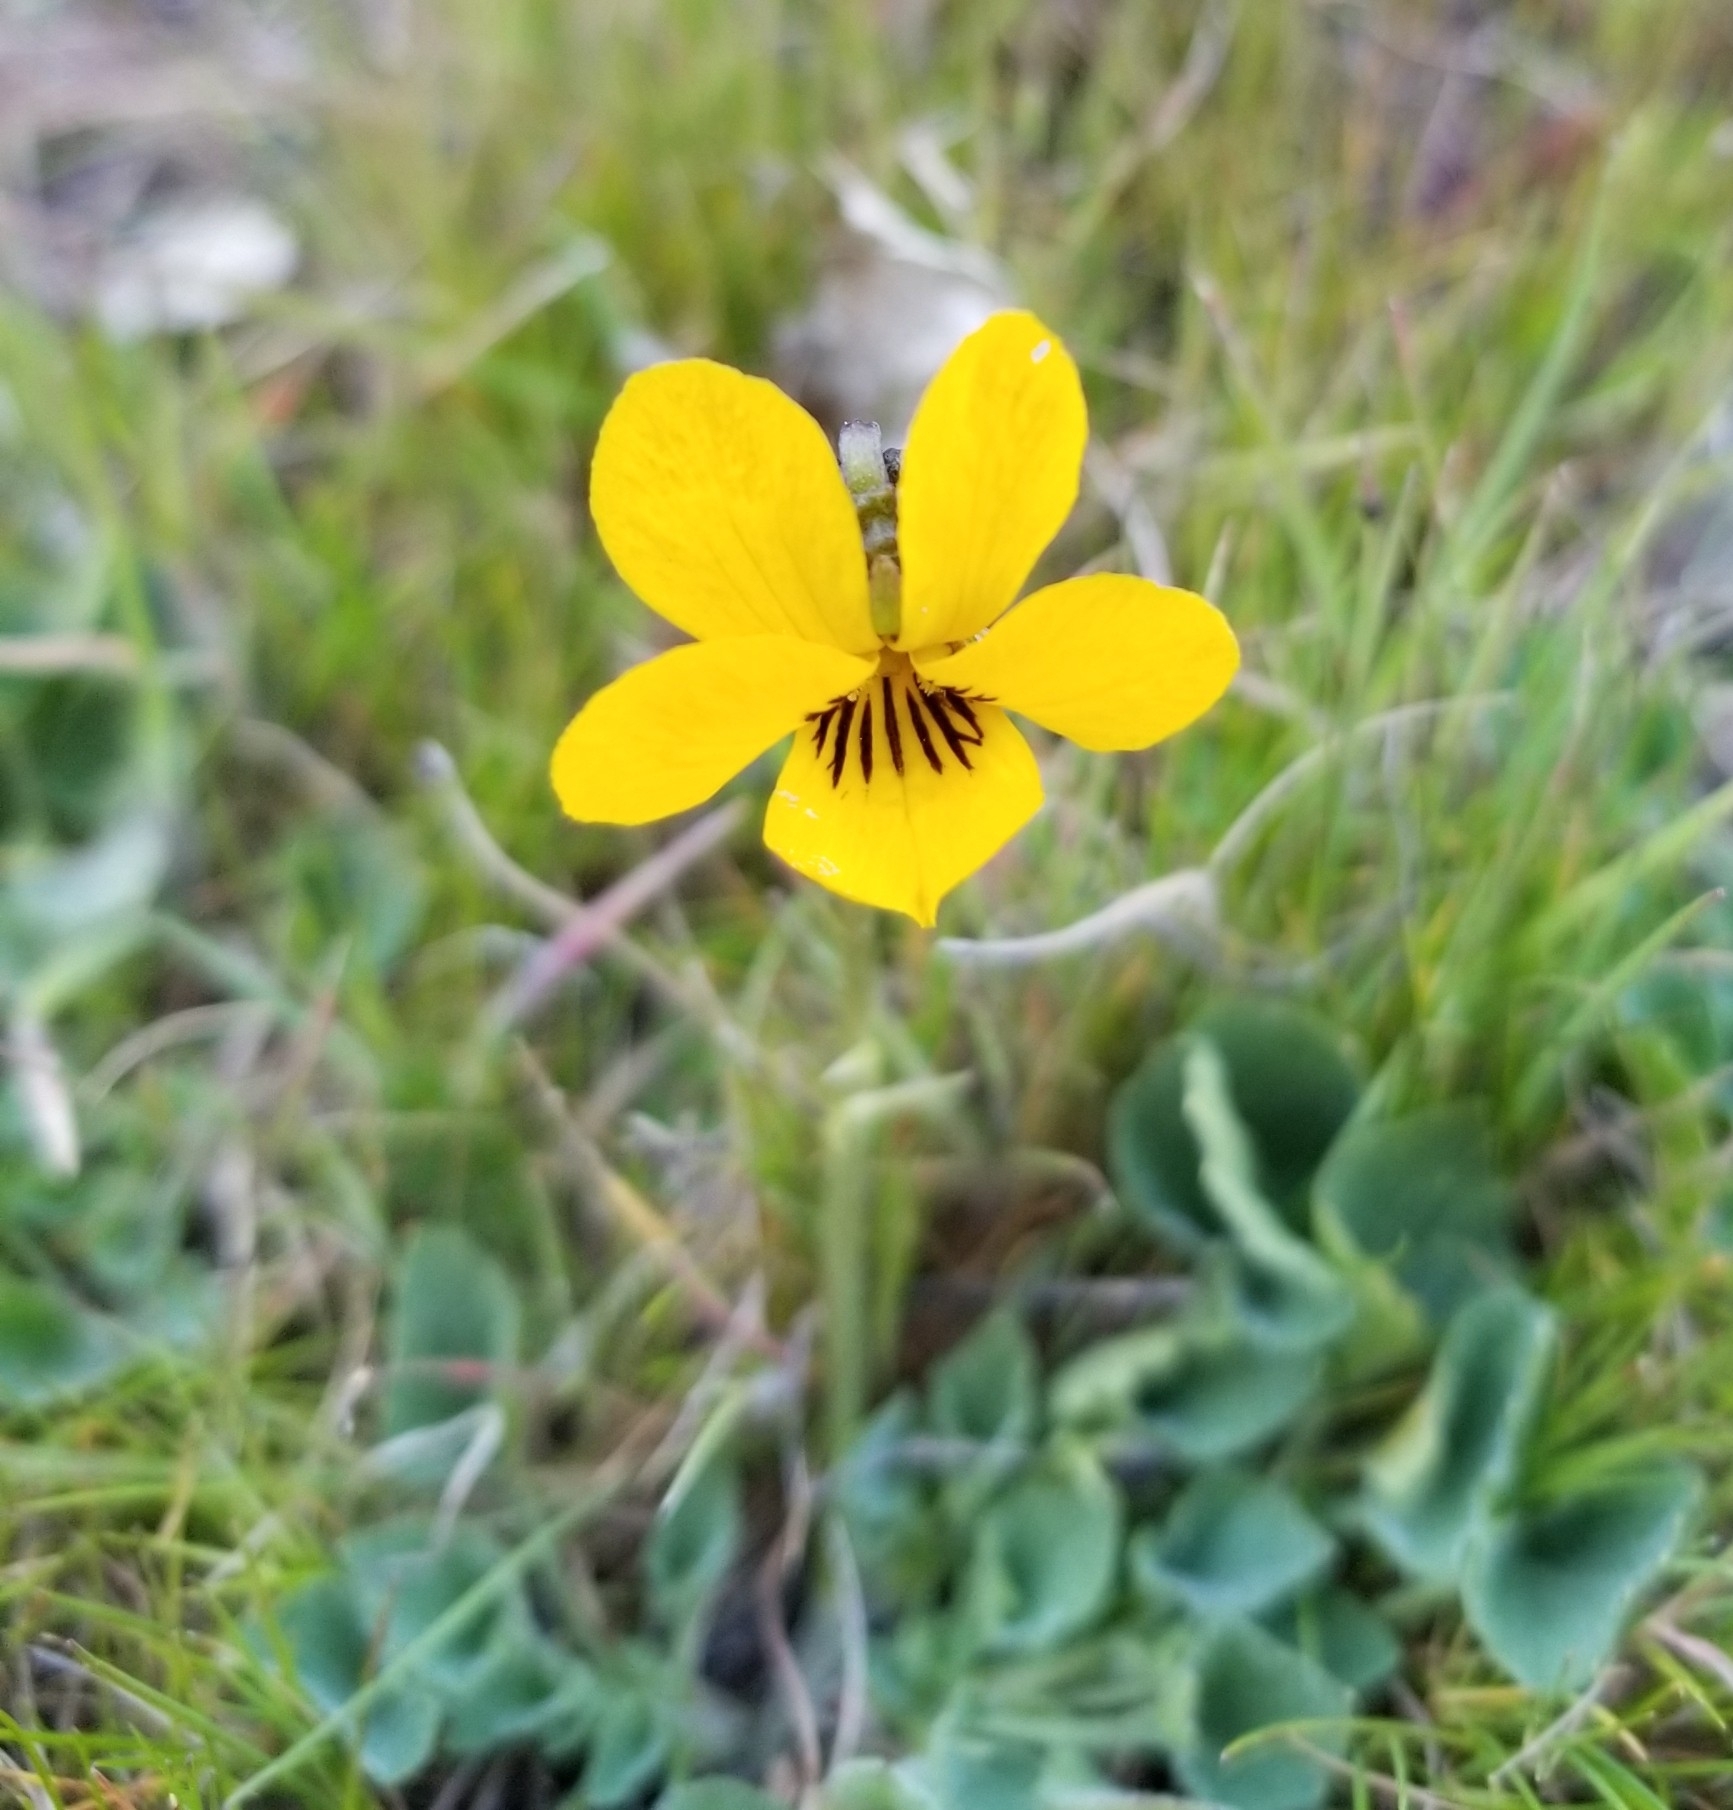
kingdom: Plantae
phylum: Tracheophyta
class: Magnoliopsida
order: Malpighiales
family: Violaceae
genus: Viola
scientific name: Viola pedunculata
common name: California golden violet
